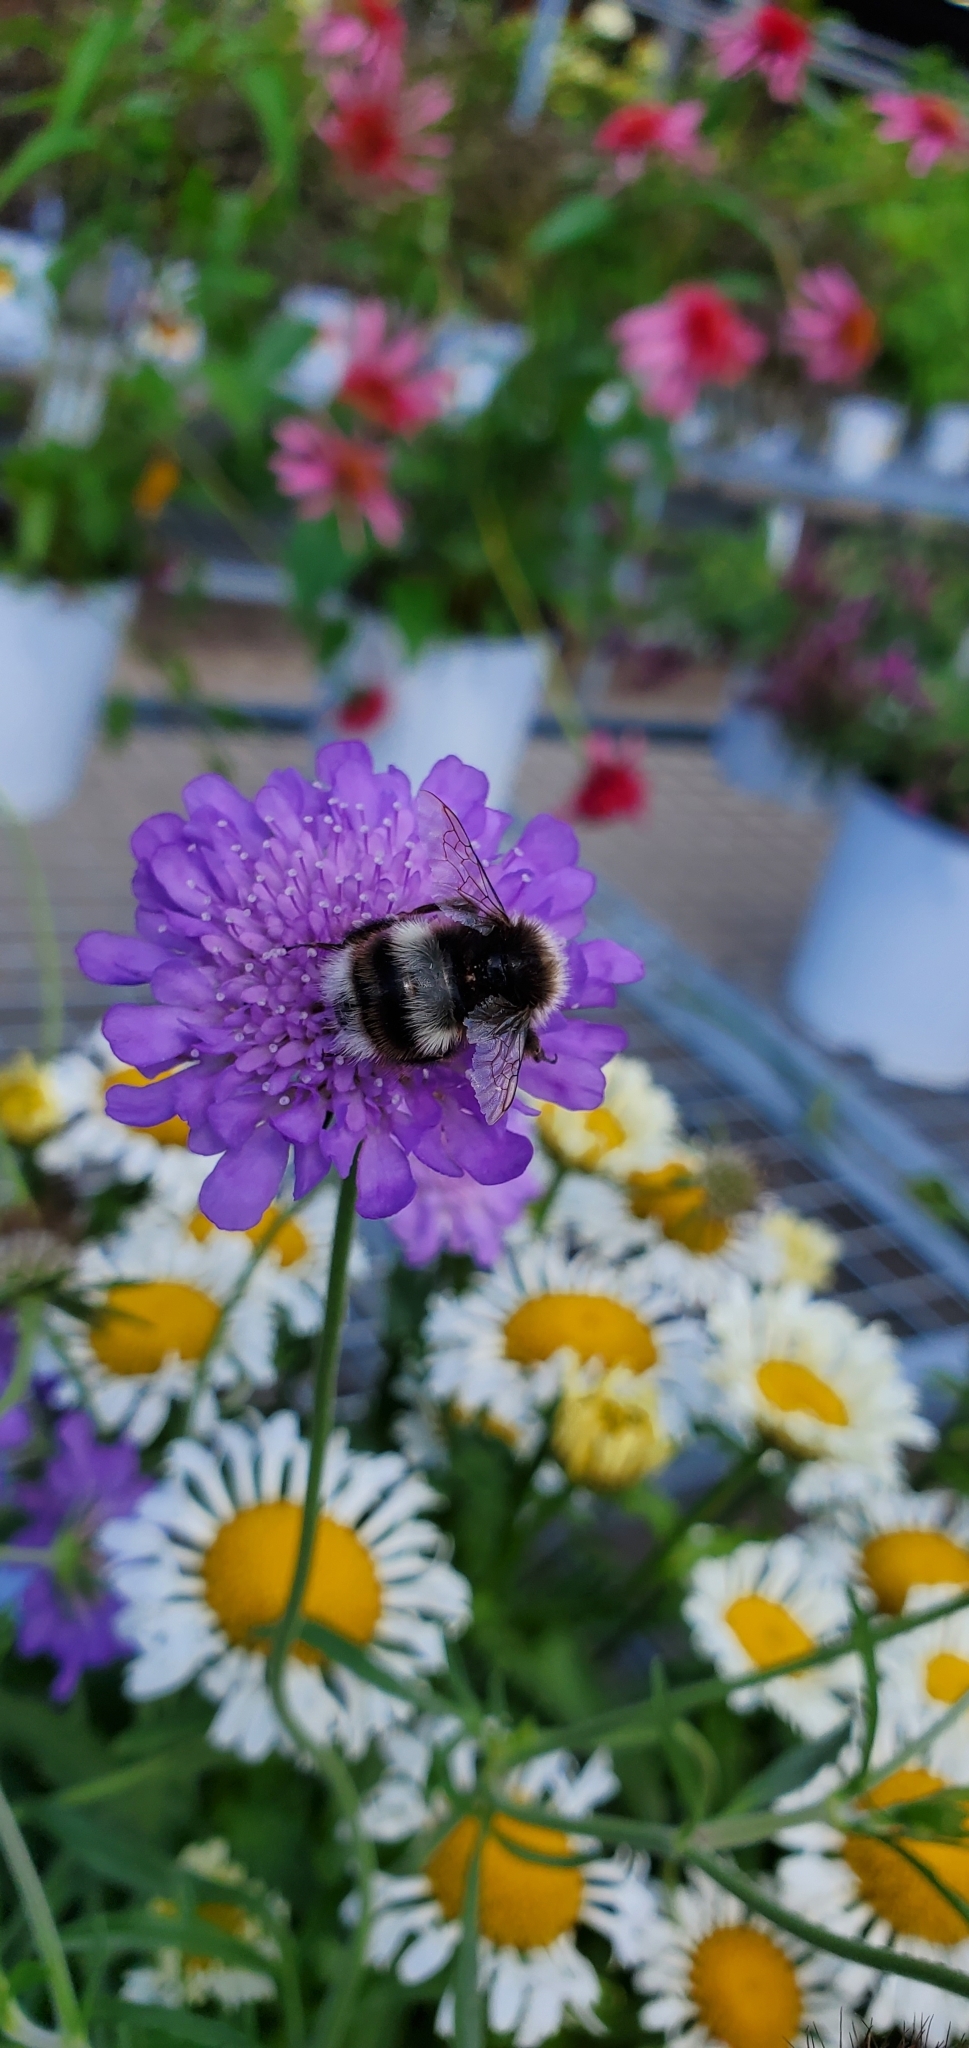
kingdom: Animalia
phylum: Arthropoda
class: Insecta
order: Hymenoptera
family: Apidae
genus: Bombus
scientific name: Bombus cryptarum
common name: Cryptic bumblebee
